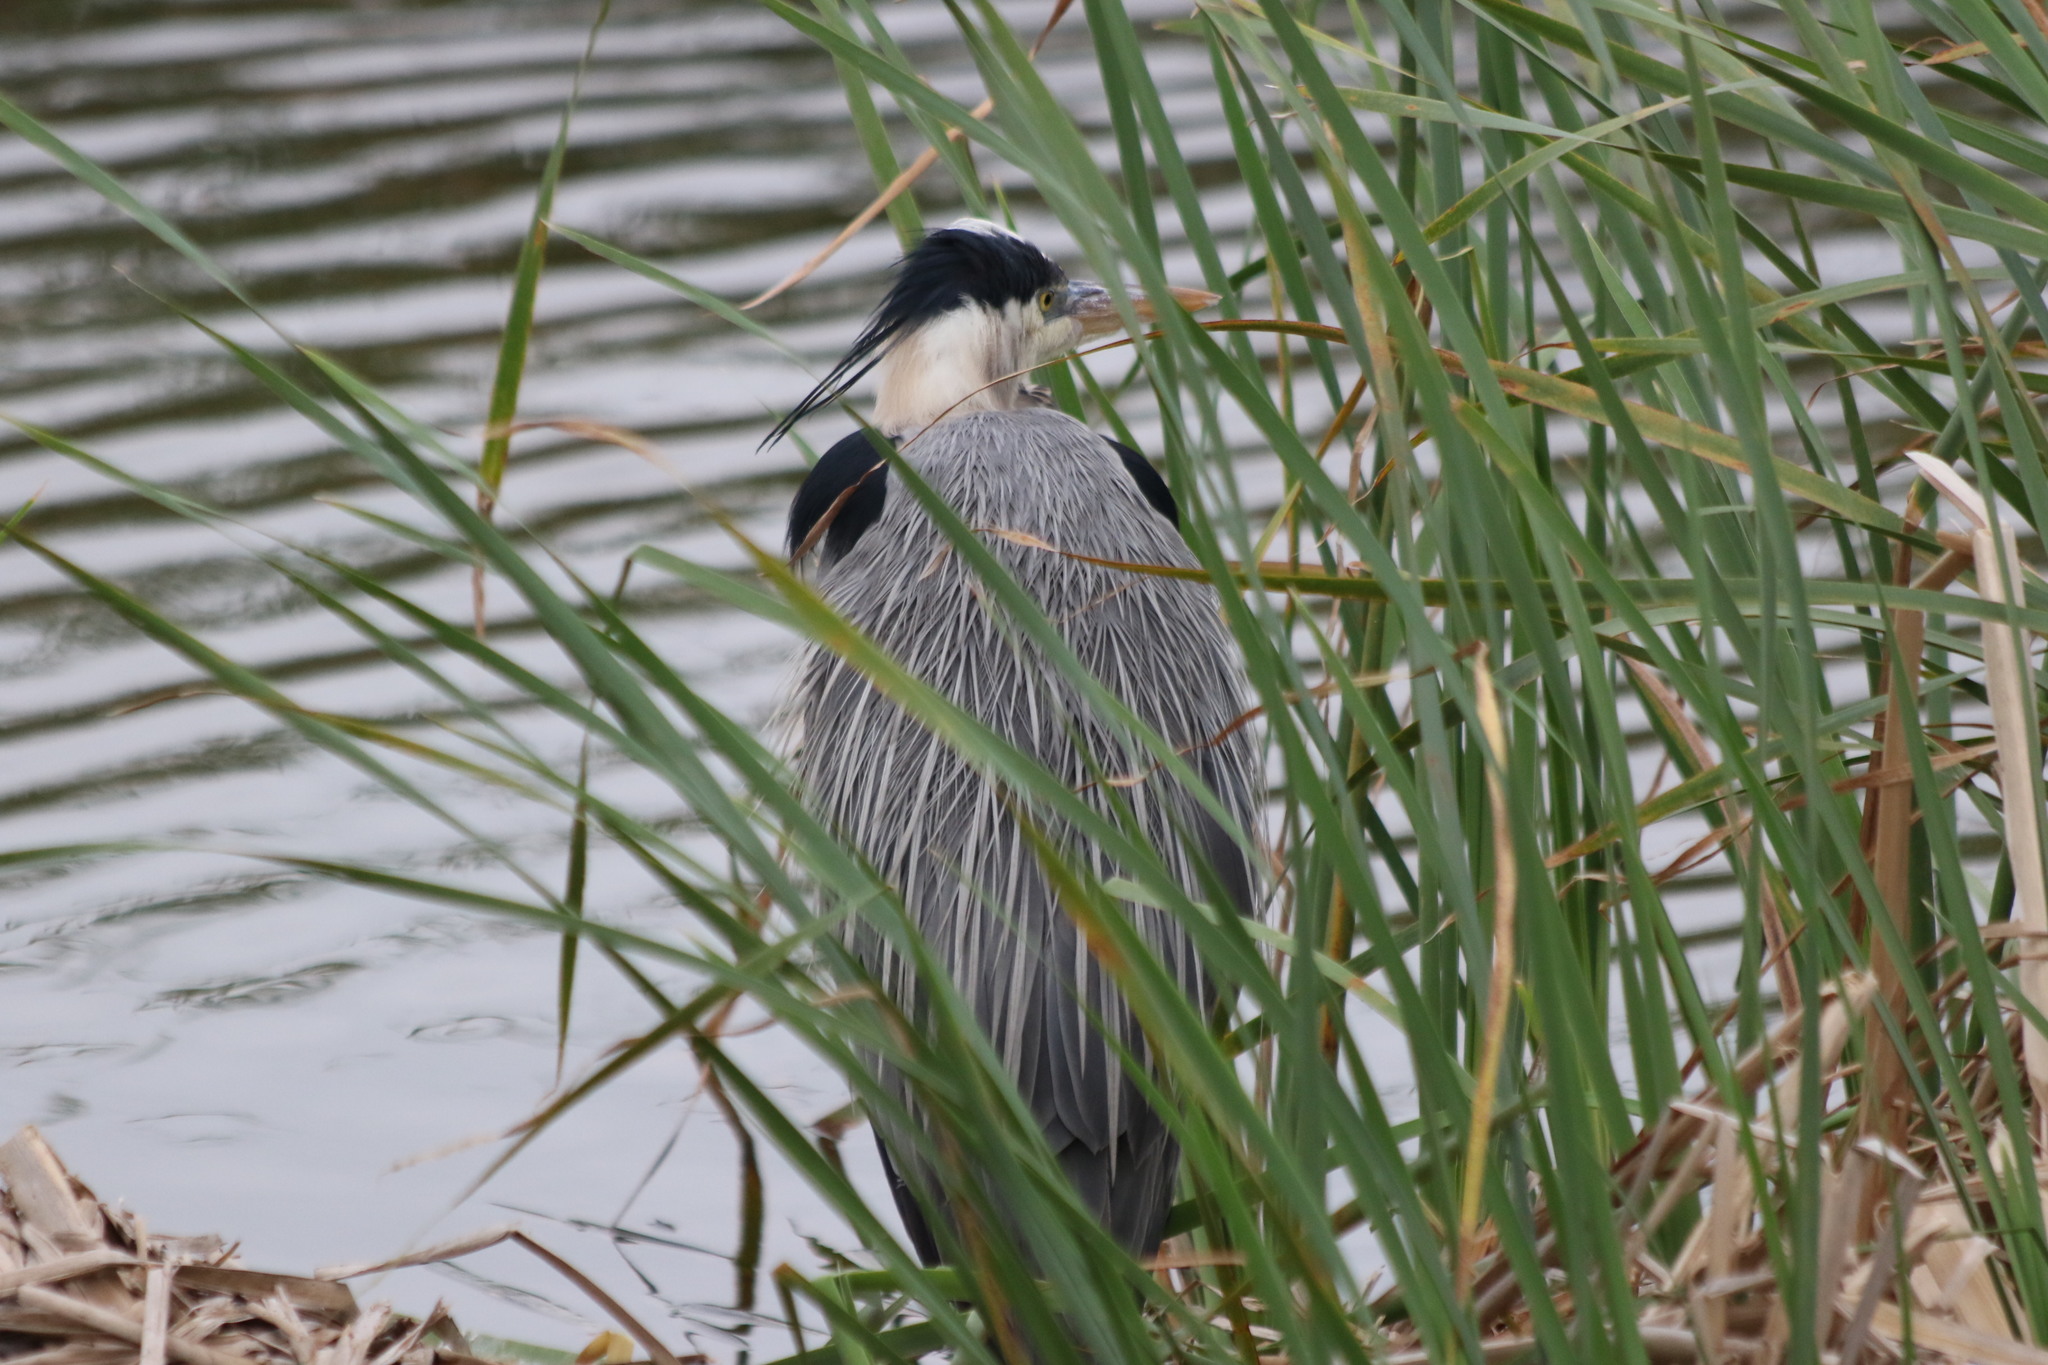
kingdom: Animalia
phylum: Chordata
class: Aves
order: Pelecaniformes
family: Ardeidae
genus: Ardea
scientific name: Ardea herodias
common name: Great blue heron
